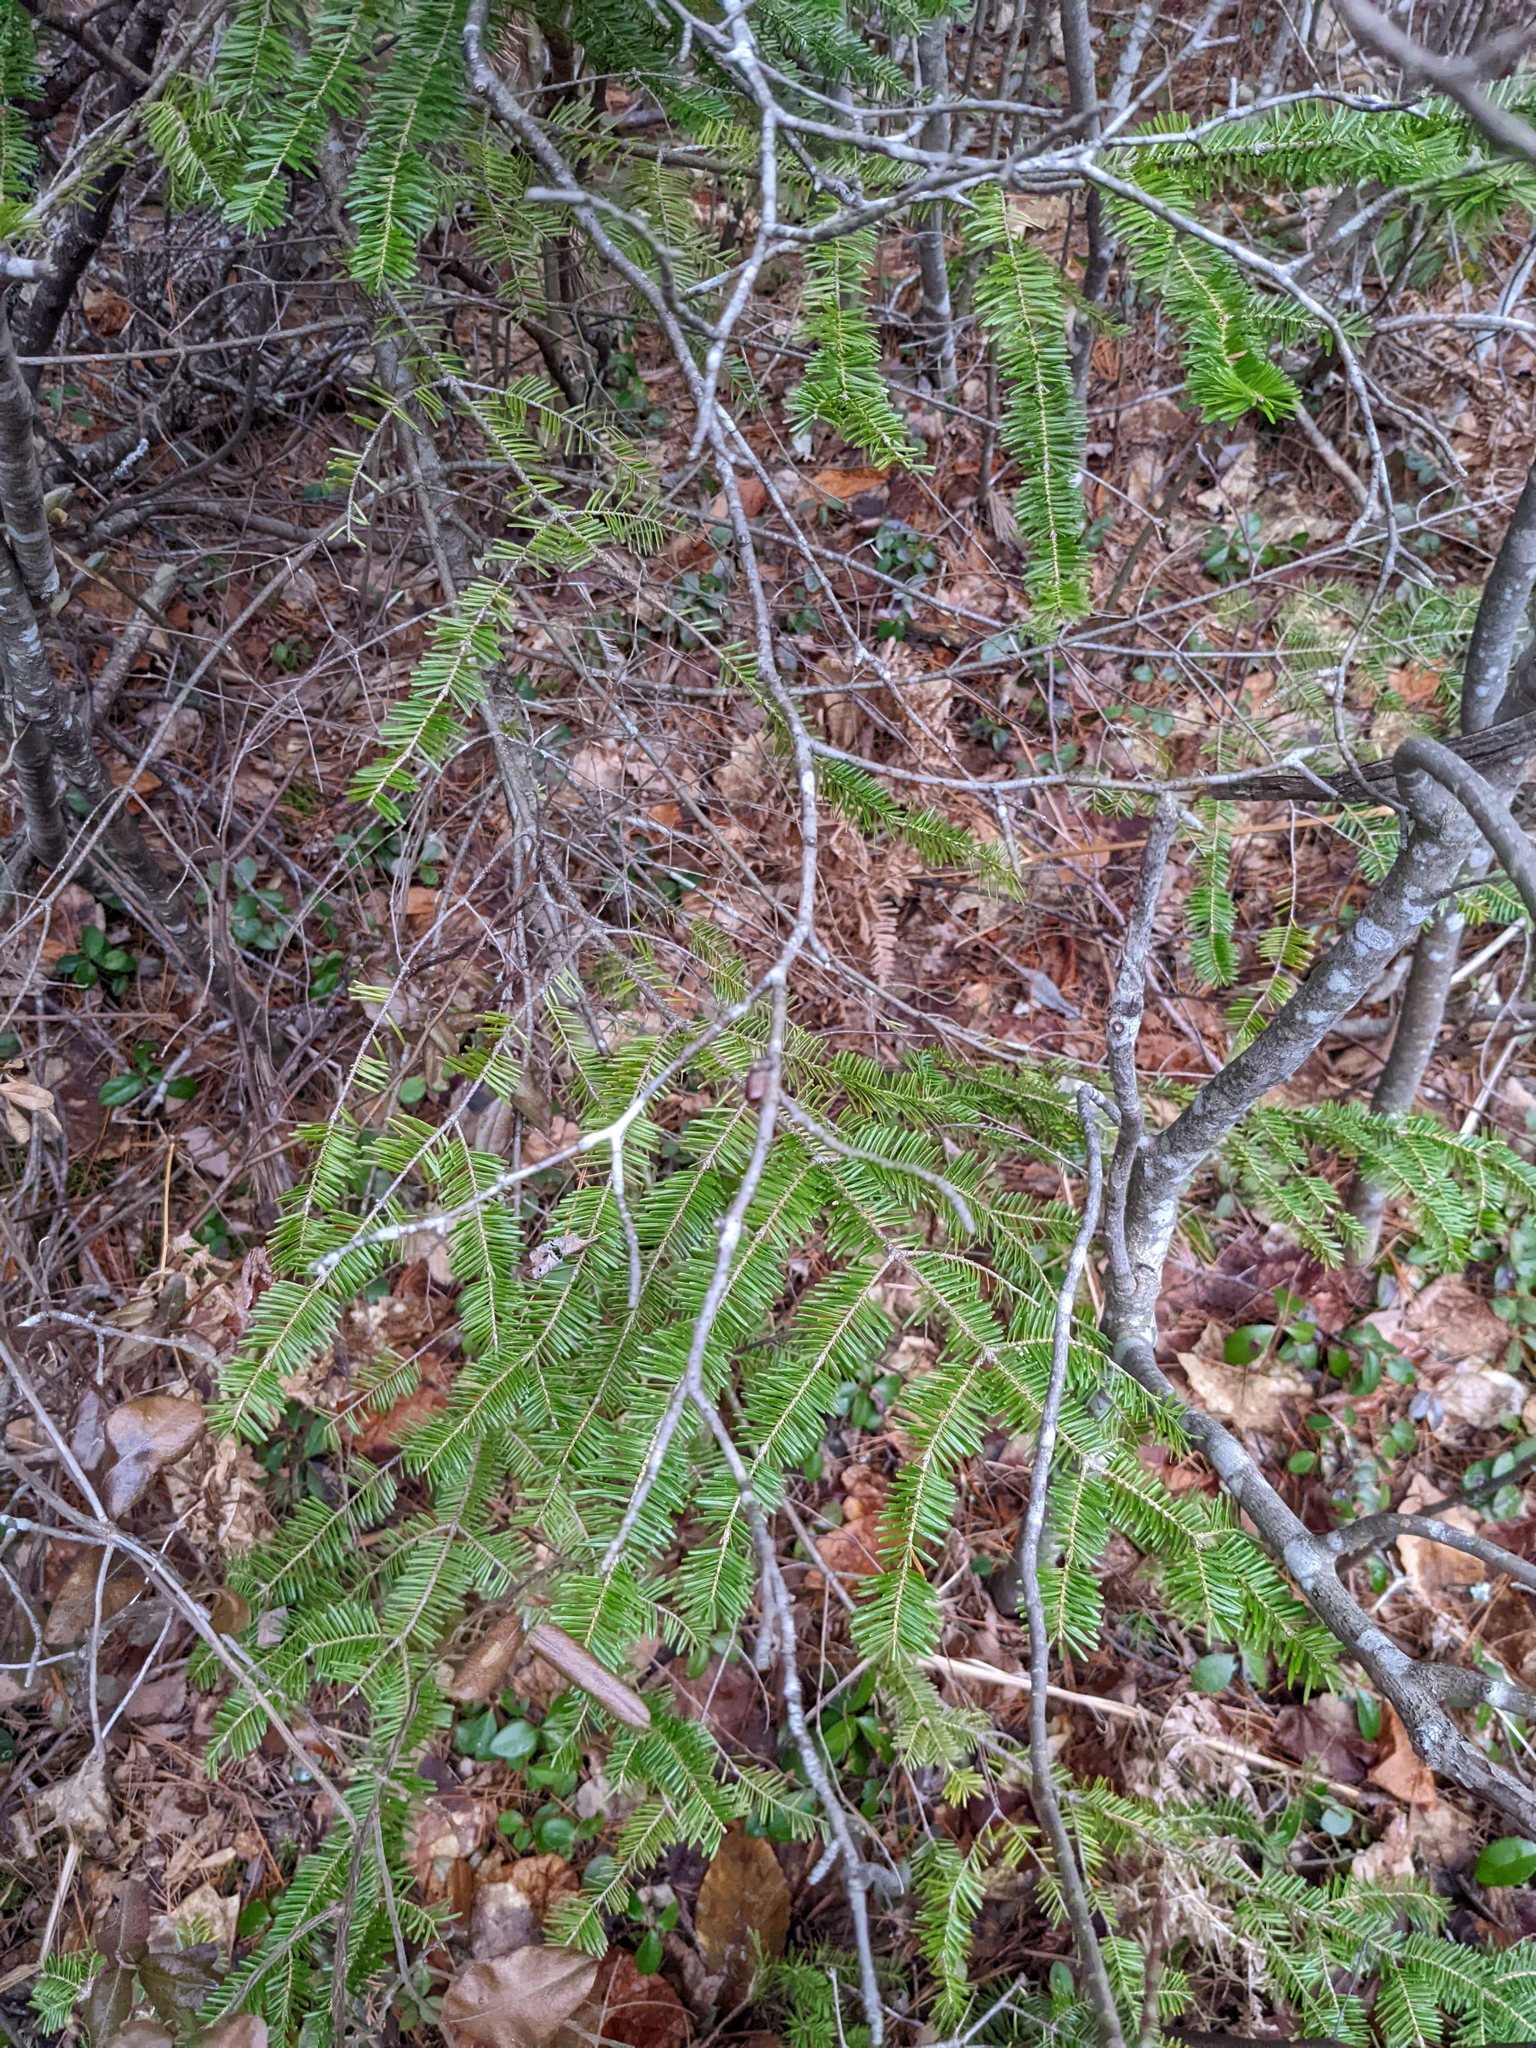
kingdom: Plantae
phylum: Tracheophyta
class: Pinopsida
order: Pinales
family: Pinaceae
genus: Abies
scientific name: Abies balsamea
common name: Balsam fir
